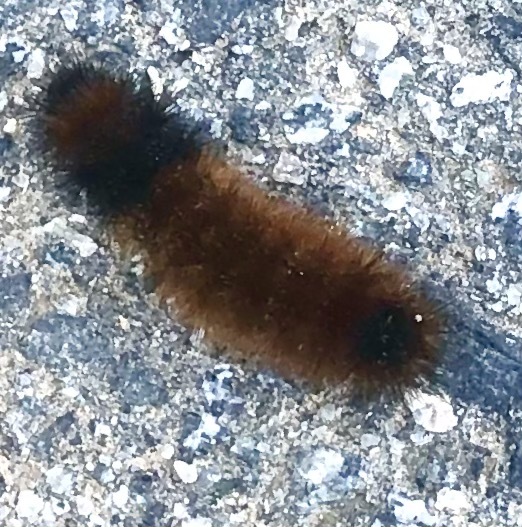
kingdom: Animalia
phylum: Arthropoda
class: Insecta
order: Lepidoptera
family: Erebidae
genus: Pyrrharctia
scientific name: Pyrrharctia isabella
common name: Isabella tiger moth
